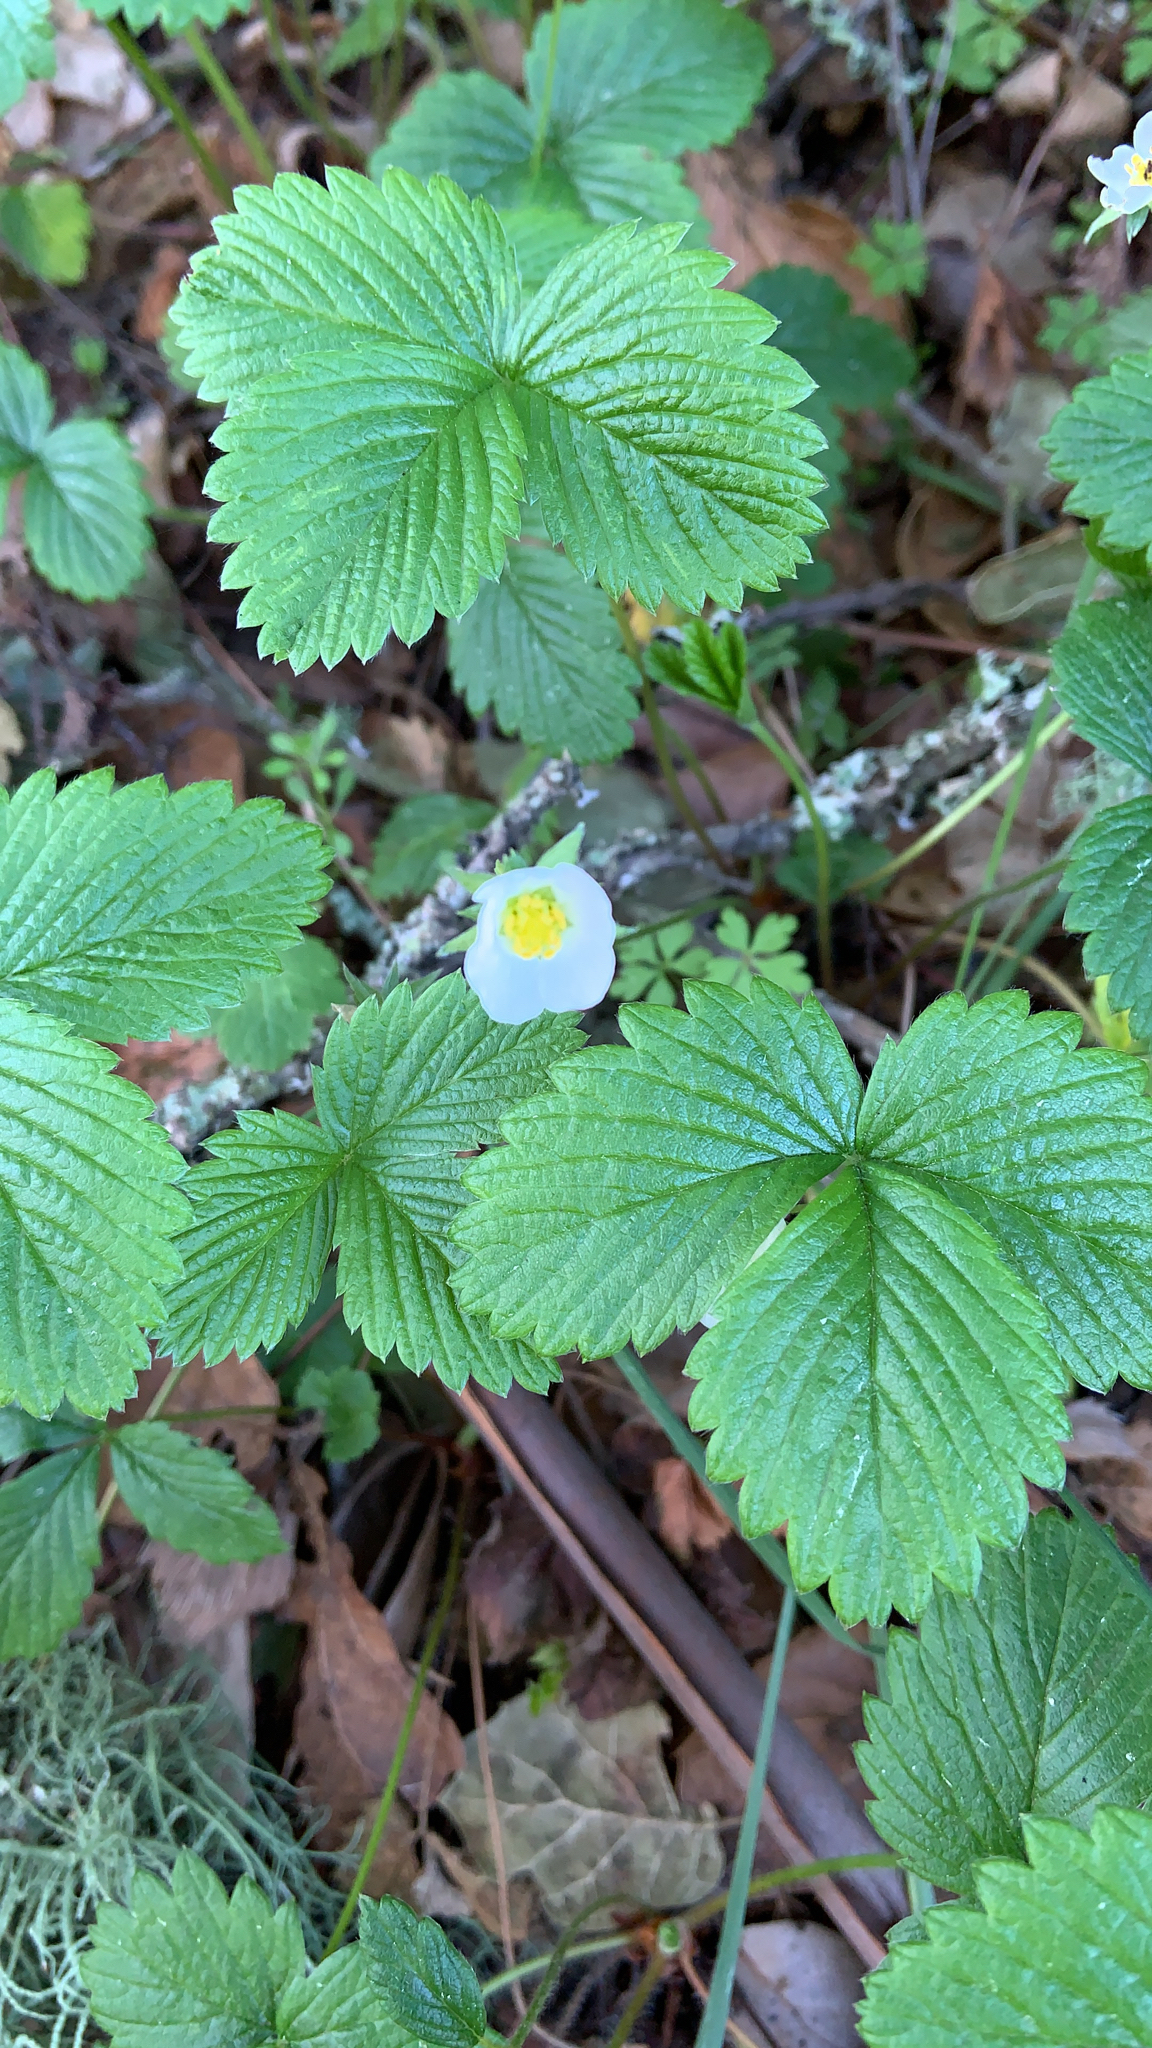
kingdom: Plantae
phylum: Tracheophyta
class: Magnoliopsida
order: Rosales
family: Rosaceae
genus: Fragaria
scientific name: Fragaria vesca
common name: Wild strawberry
